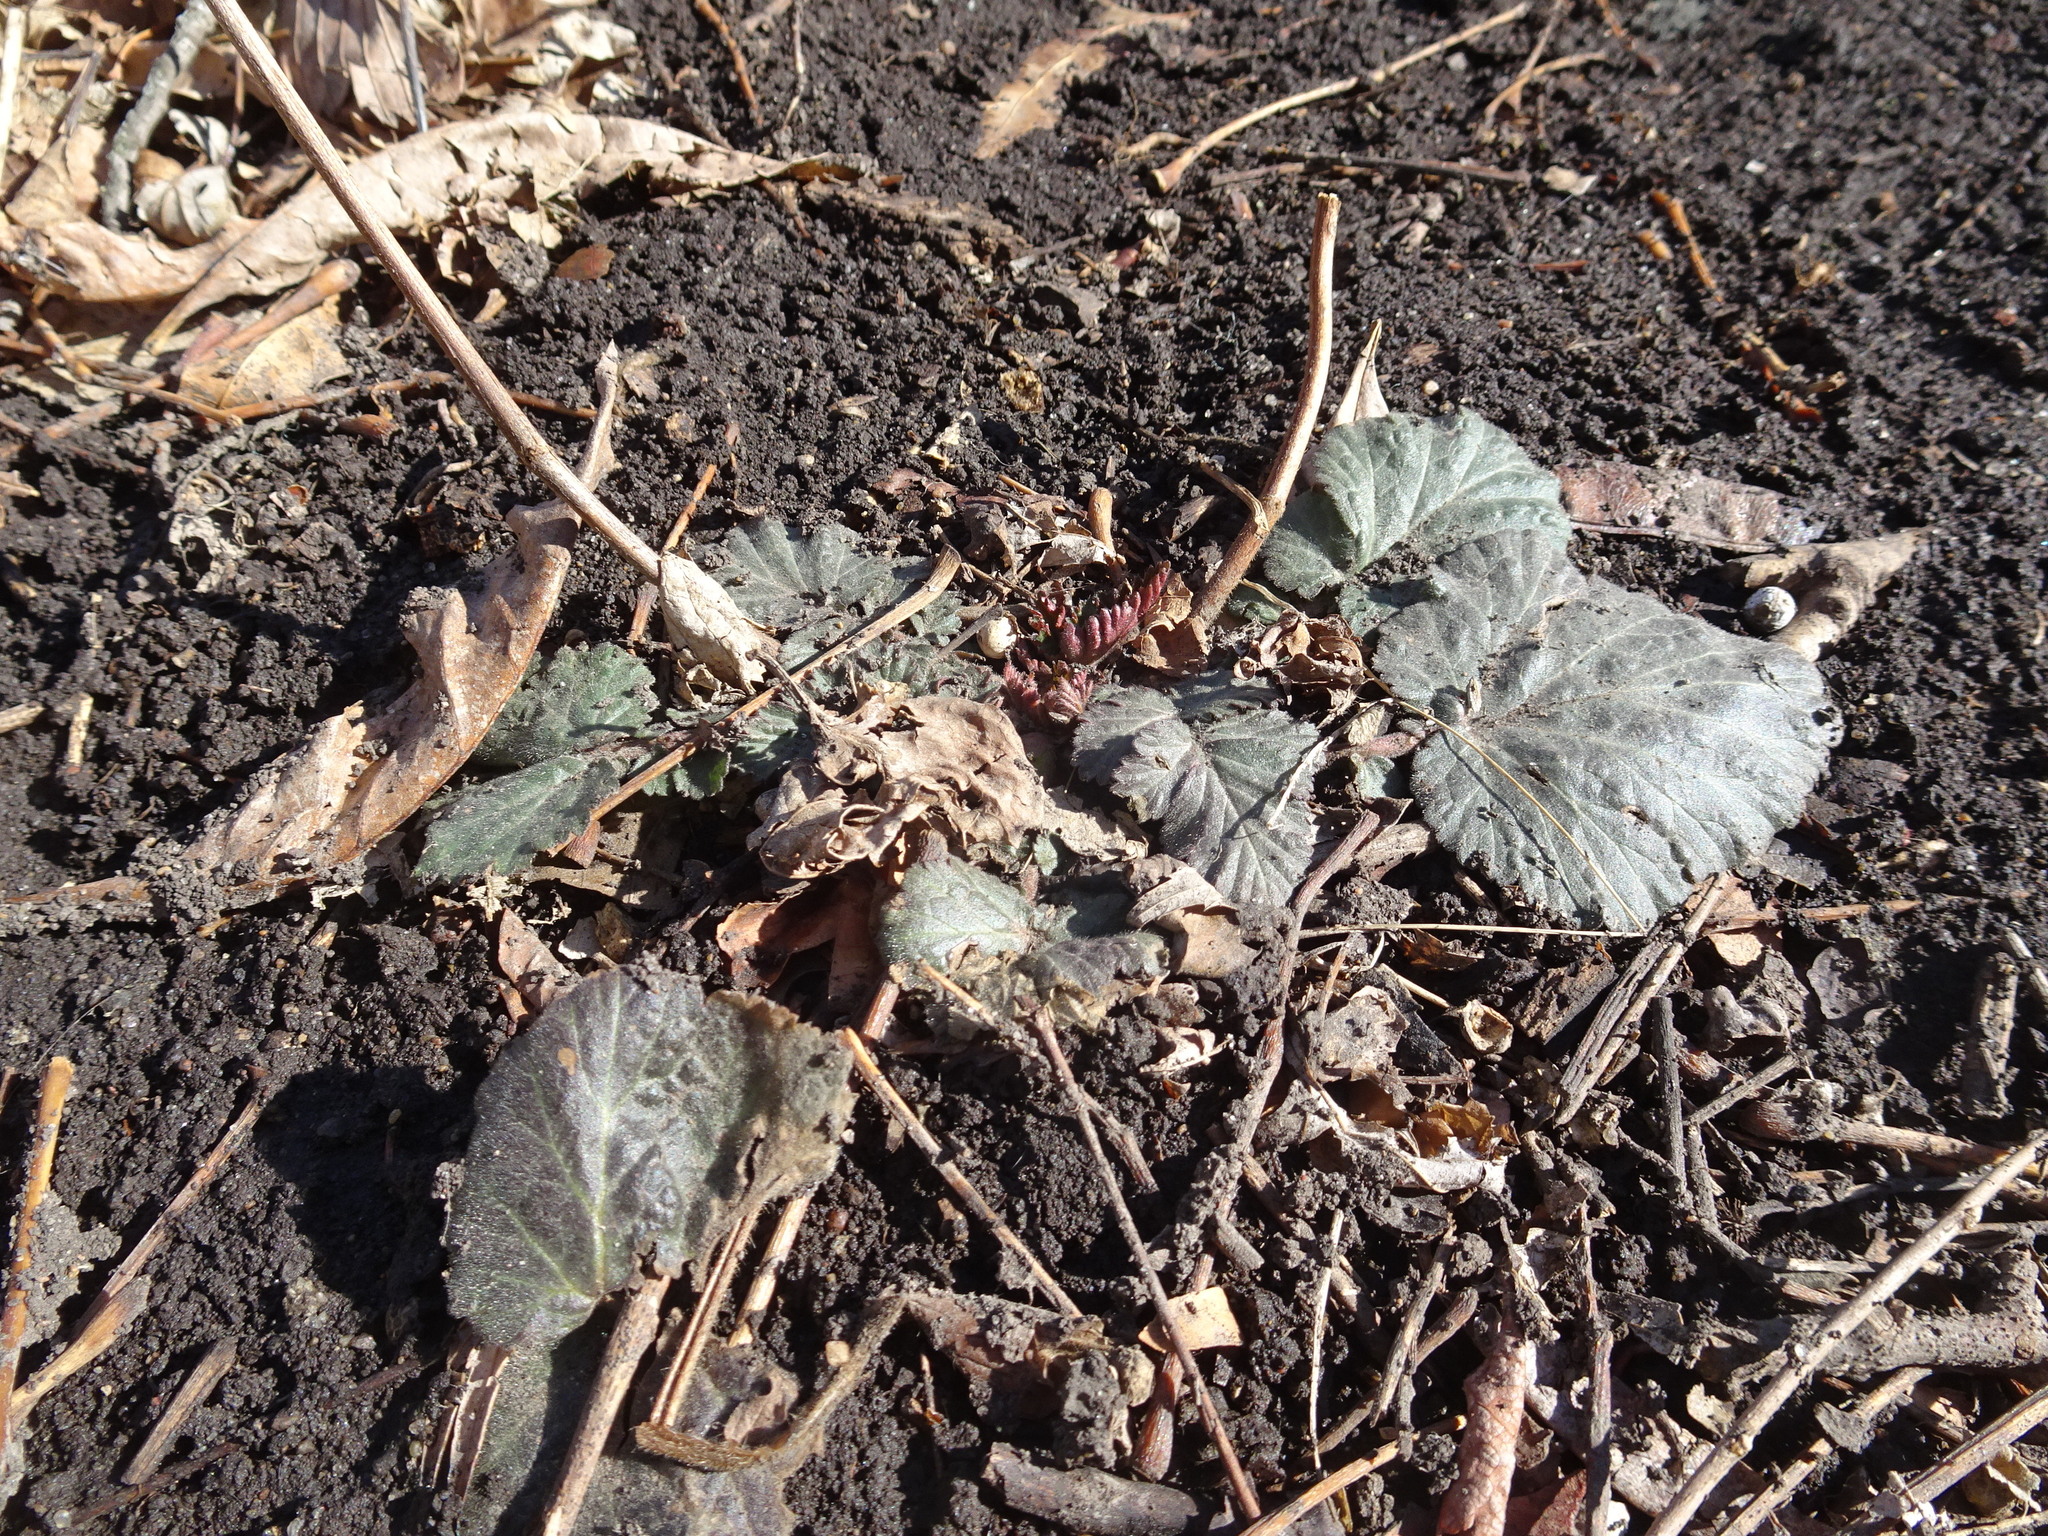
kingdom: Plantae
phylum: Tracheophyta
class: Magnoliopsida
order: Rosales
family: Rosaceae
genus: Geum
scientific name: Geum canadense
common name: White avens
